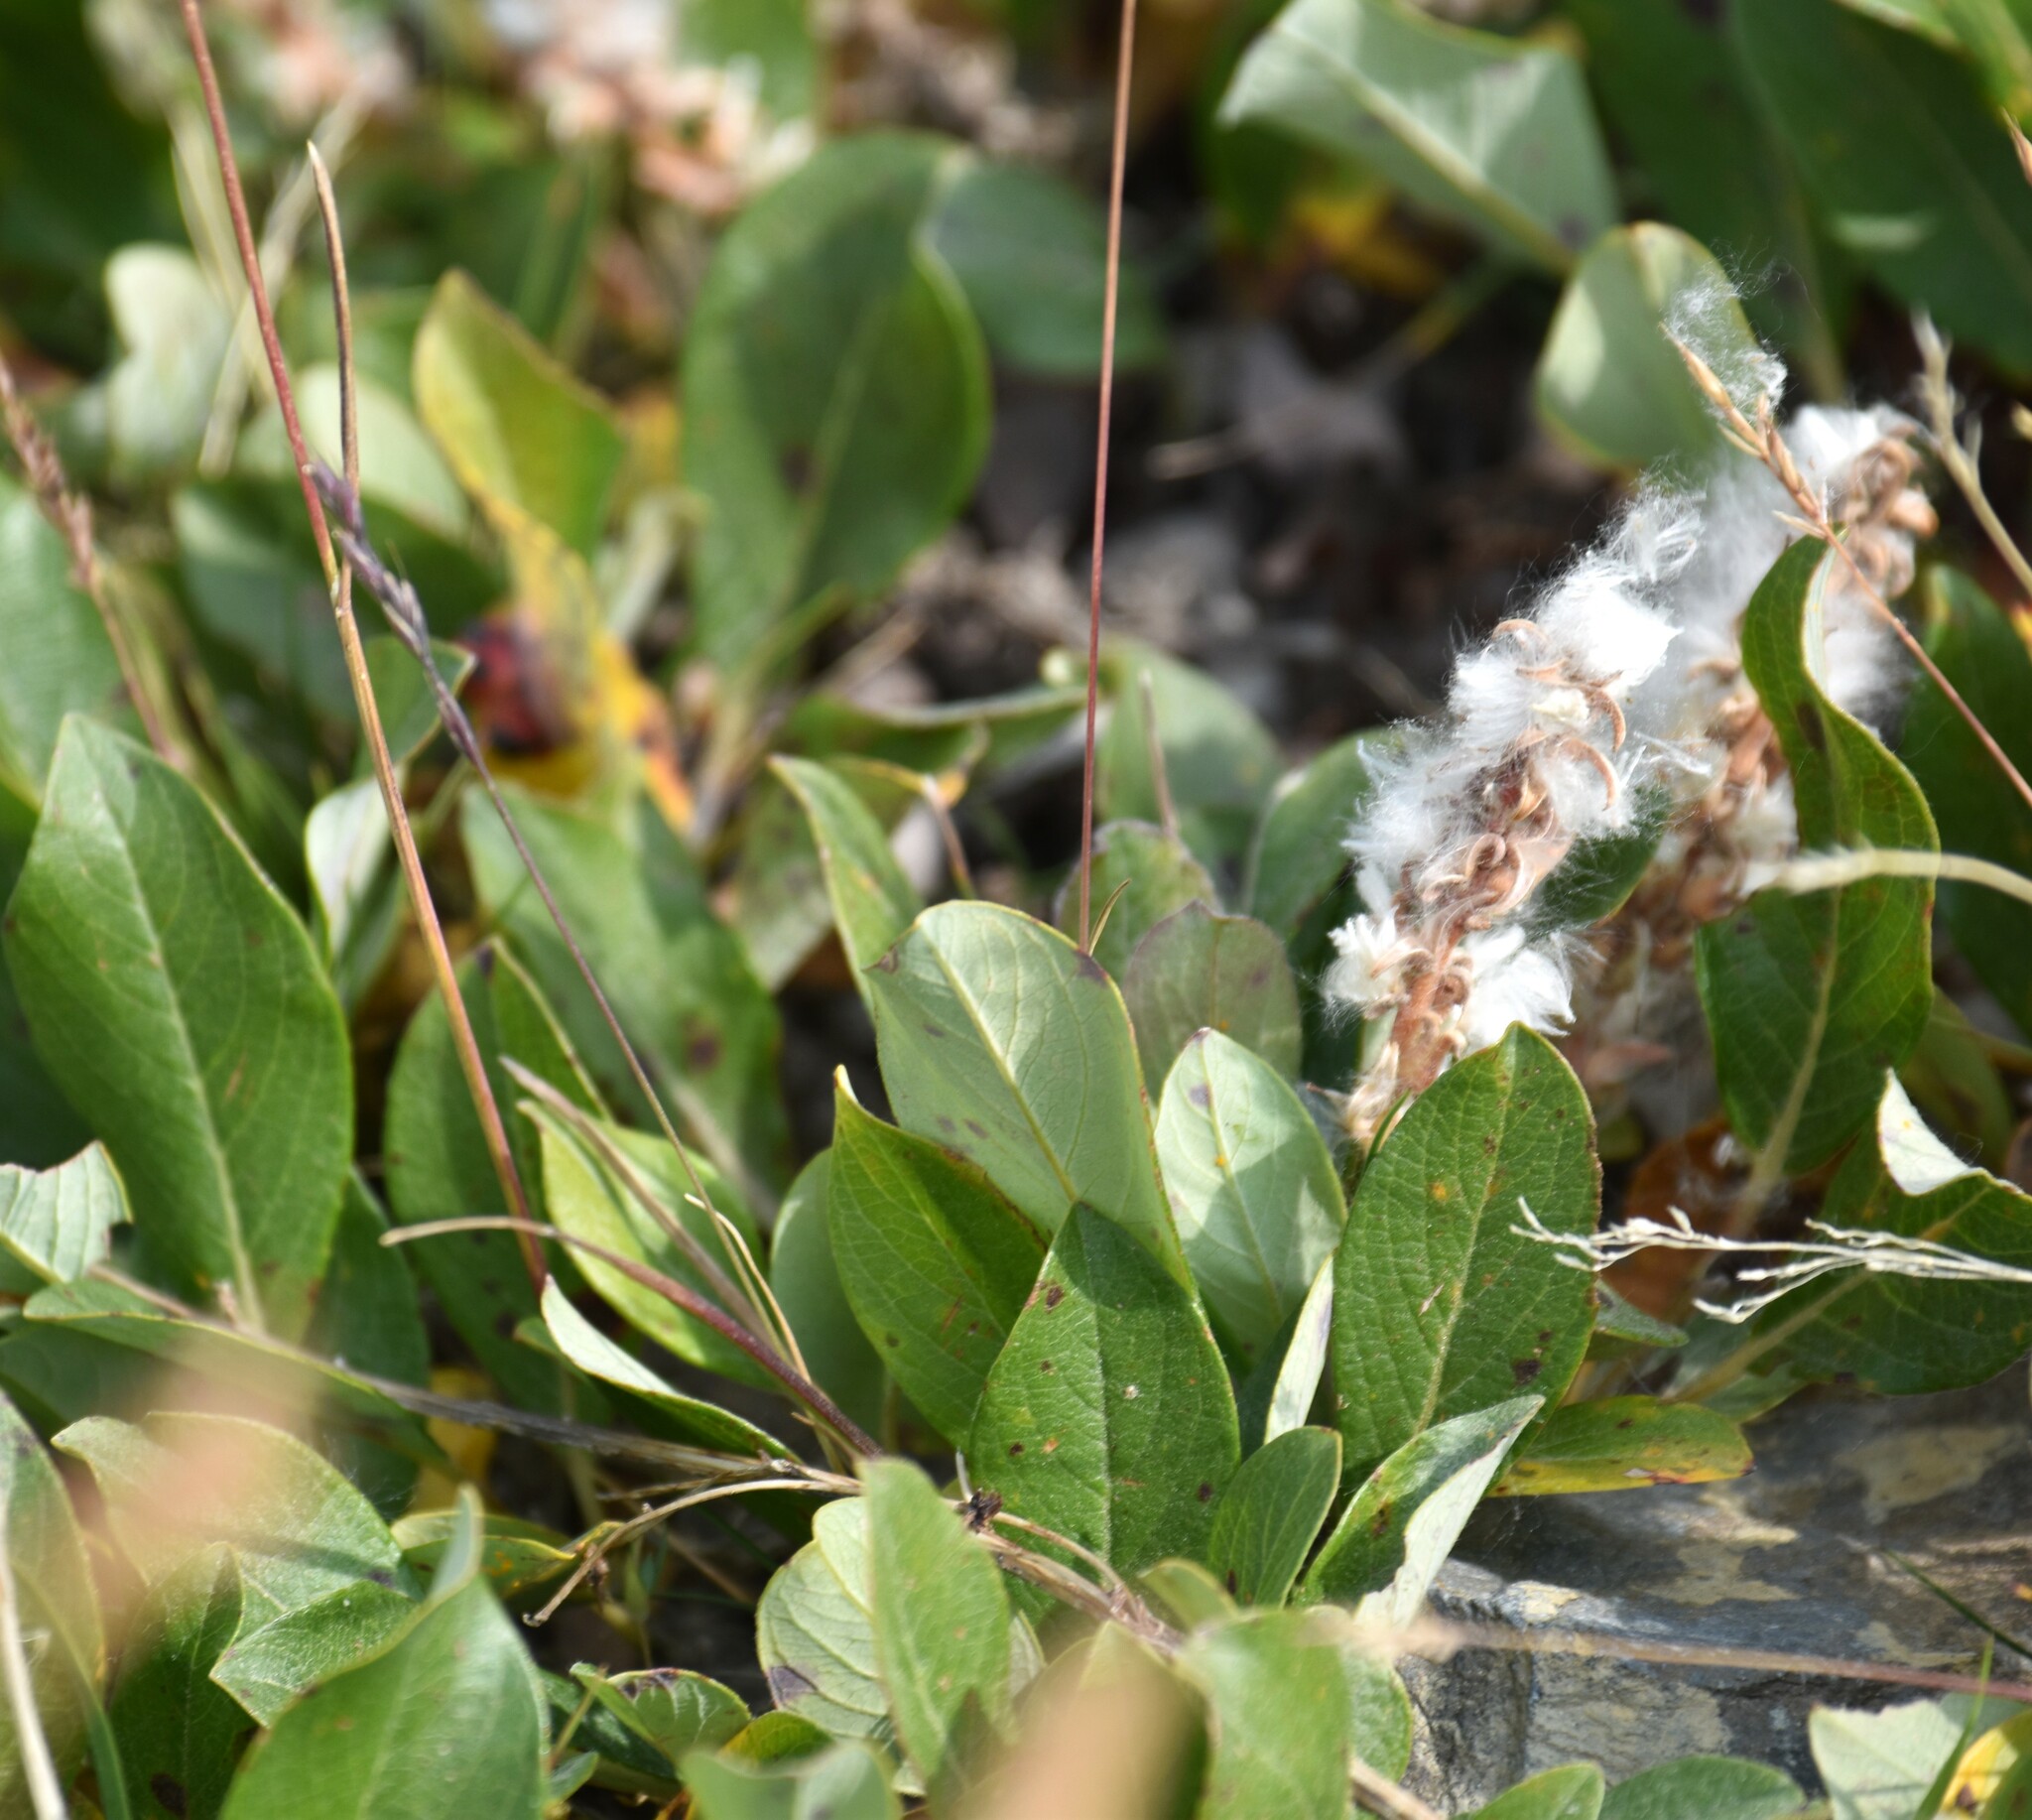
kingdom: Plantae
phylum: Tracheophyta
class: Magnoliopsida
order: Malpighiales
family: Salicaceae
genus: Salix
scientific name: Salix arctica
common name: Arctic willow
